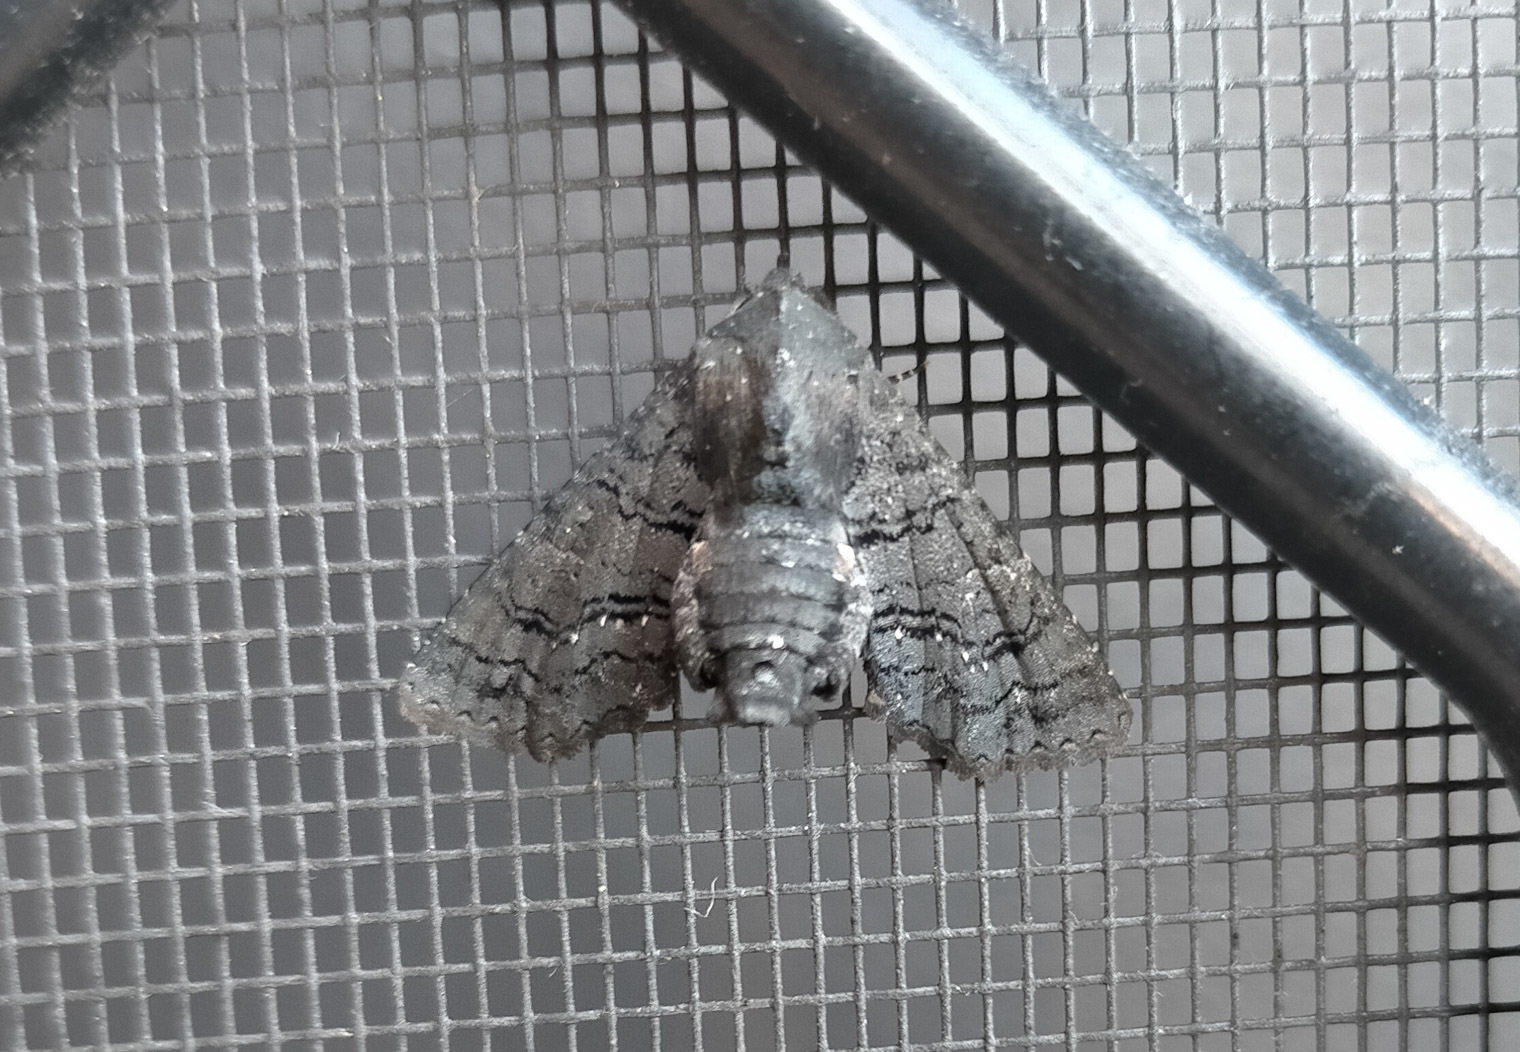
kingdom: Animalia
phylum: Arthropoda
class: Insecta
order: Lepidoptera
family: Euteliidae
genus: Pataeta
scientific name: Pataeta carbo
